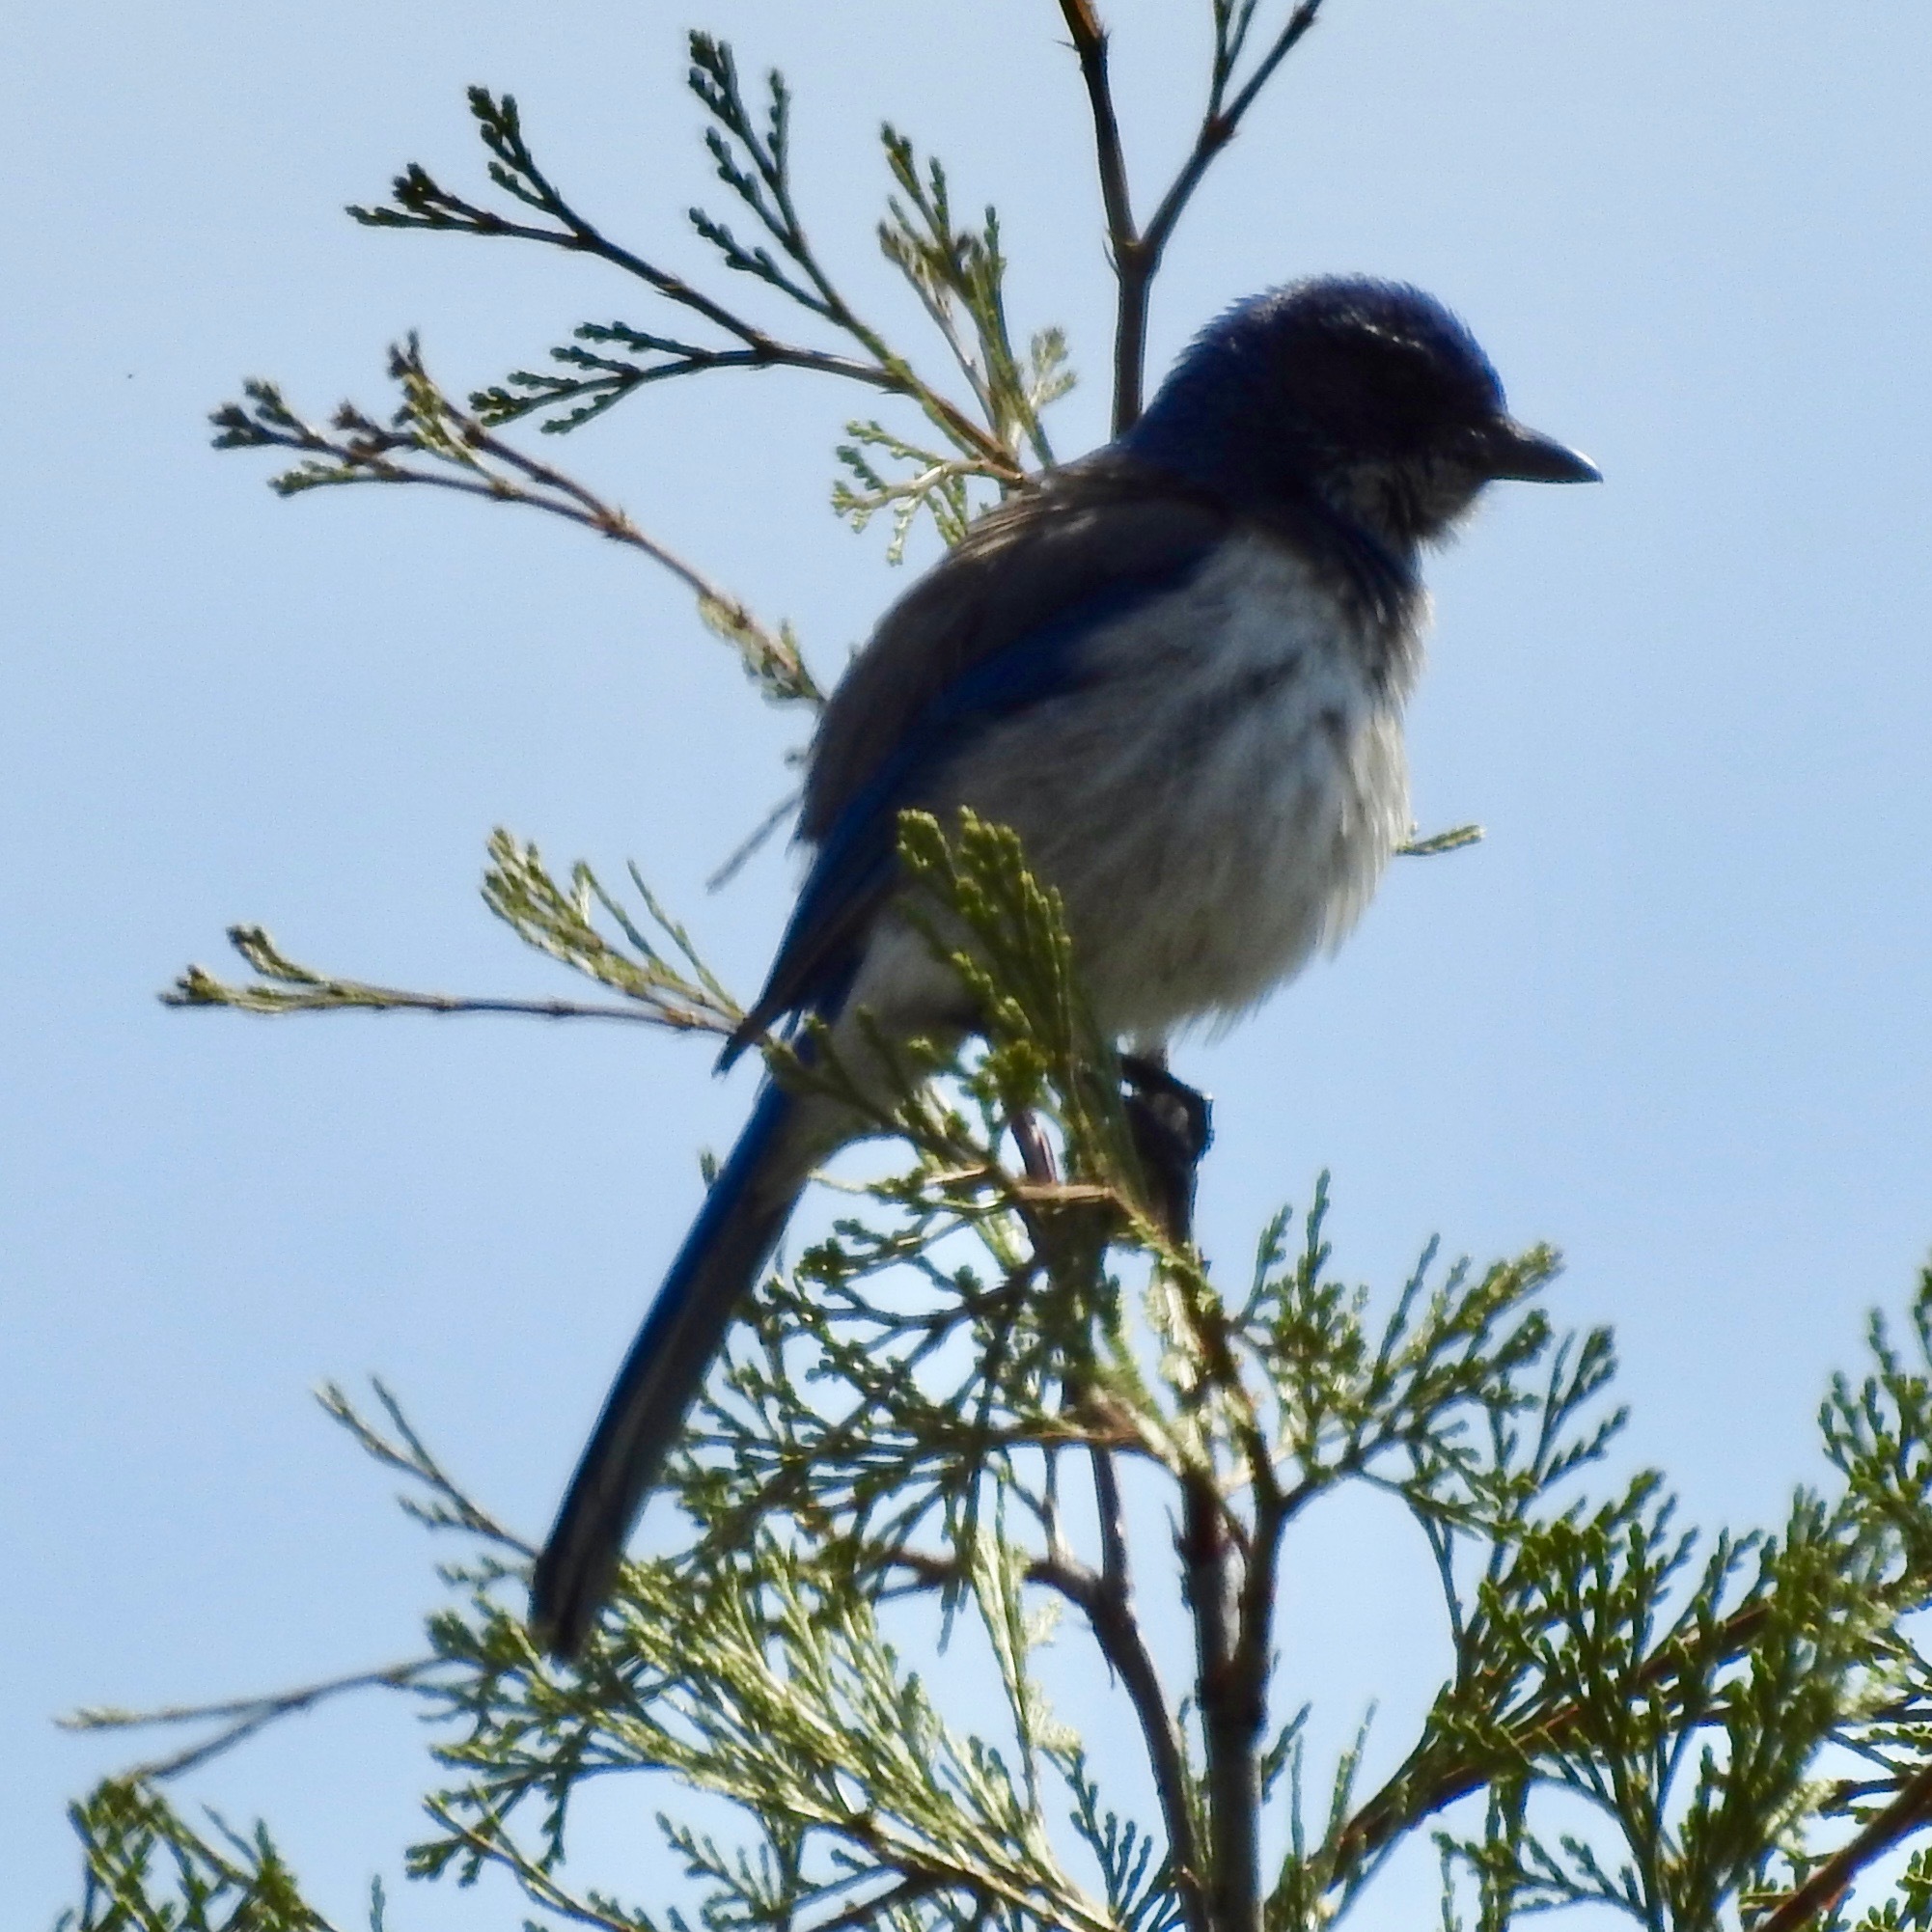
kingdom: Animalia
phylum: Chordata
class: Aves
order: Passeriformes
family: Corvidae
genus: Aphelocoma
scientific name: Aphelocoma californica
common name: California scrub-jay
